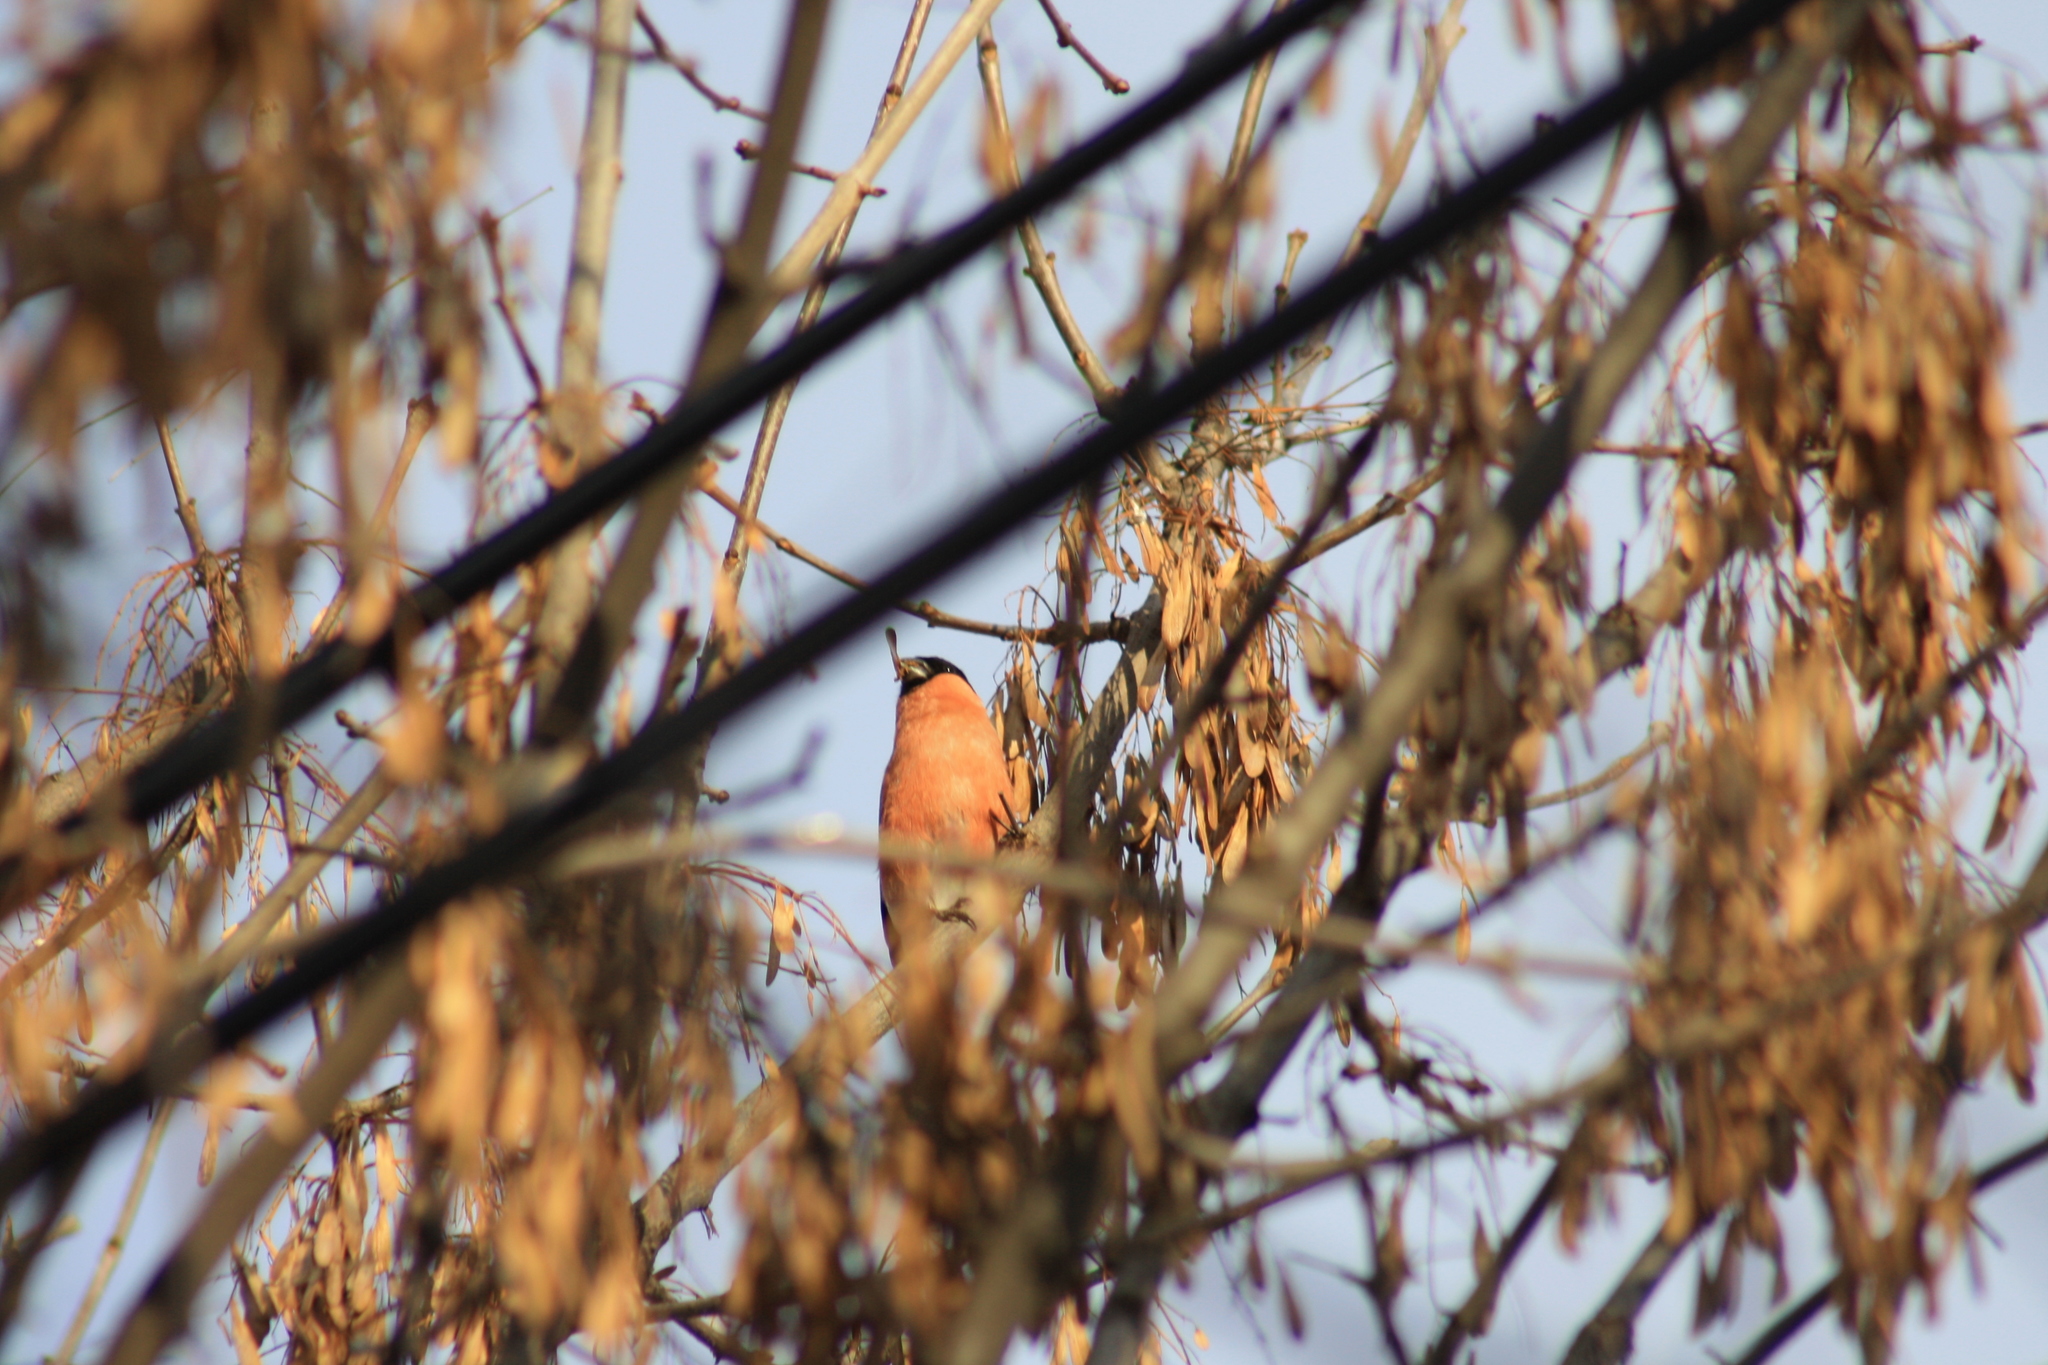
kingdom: Animalia
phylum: Chordata
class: Aves
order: Passeriformes
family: Fringillidae
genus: Pyrrhula
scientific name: Pyrrhula pyrrhula
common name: Eurasian bullfinch
